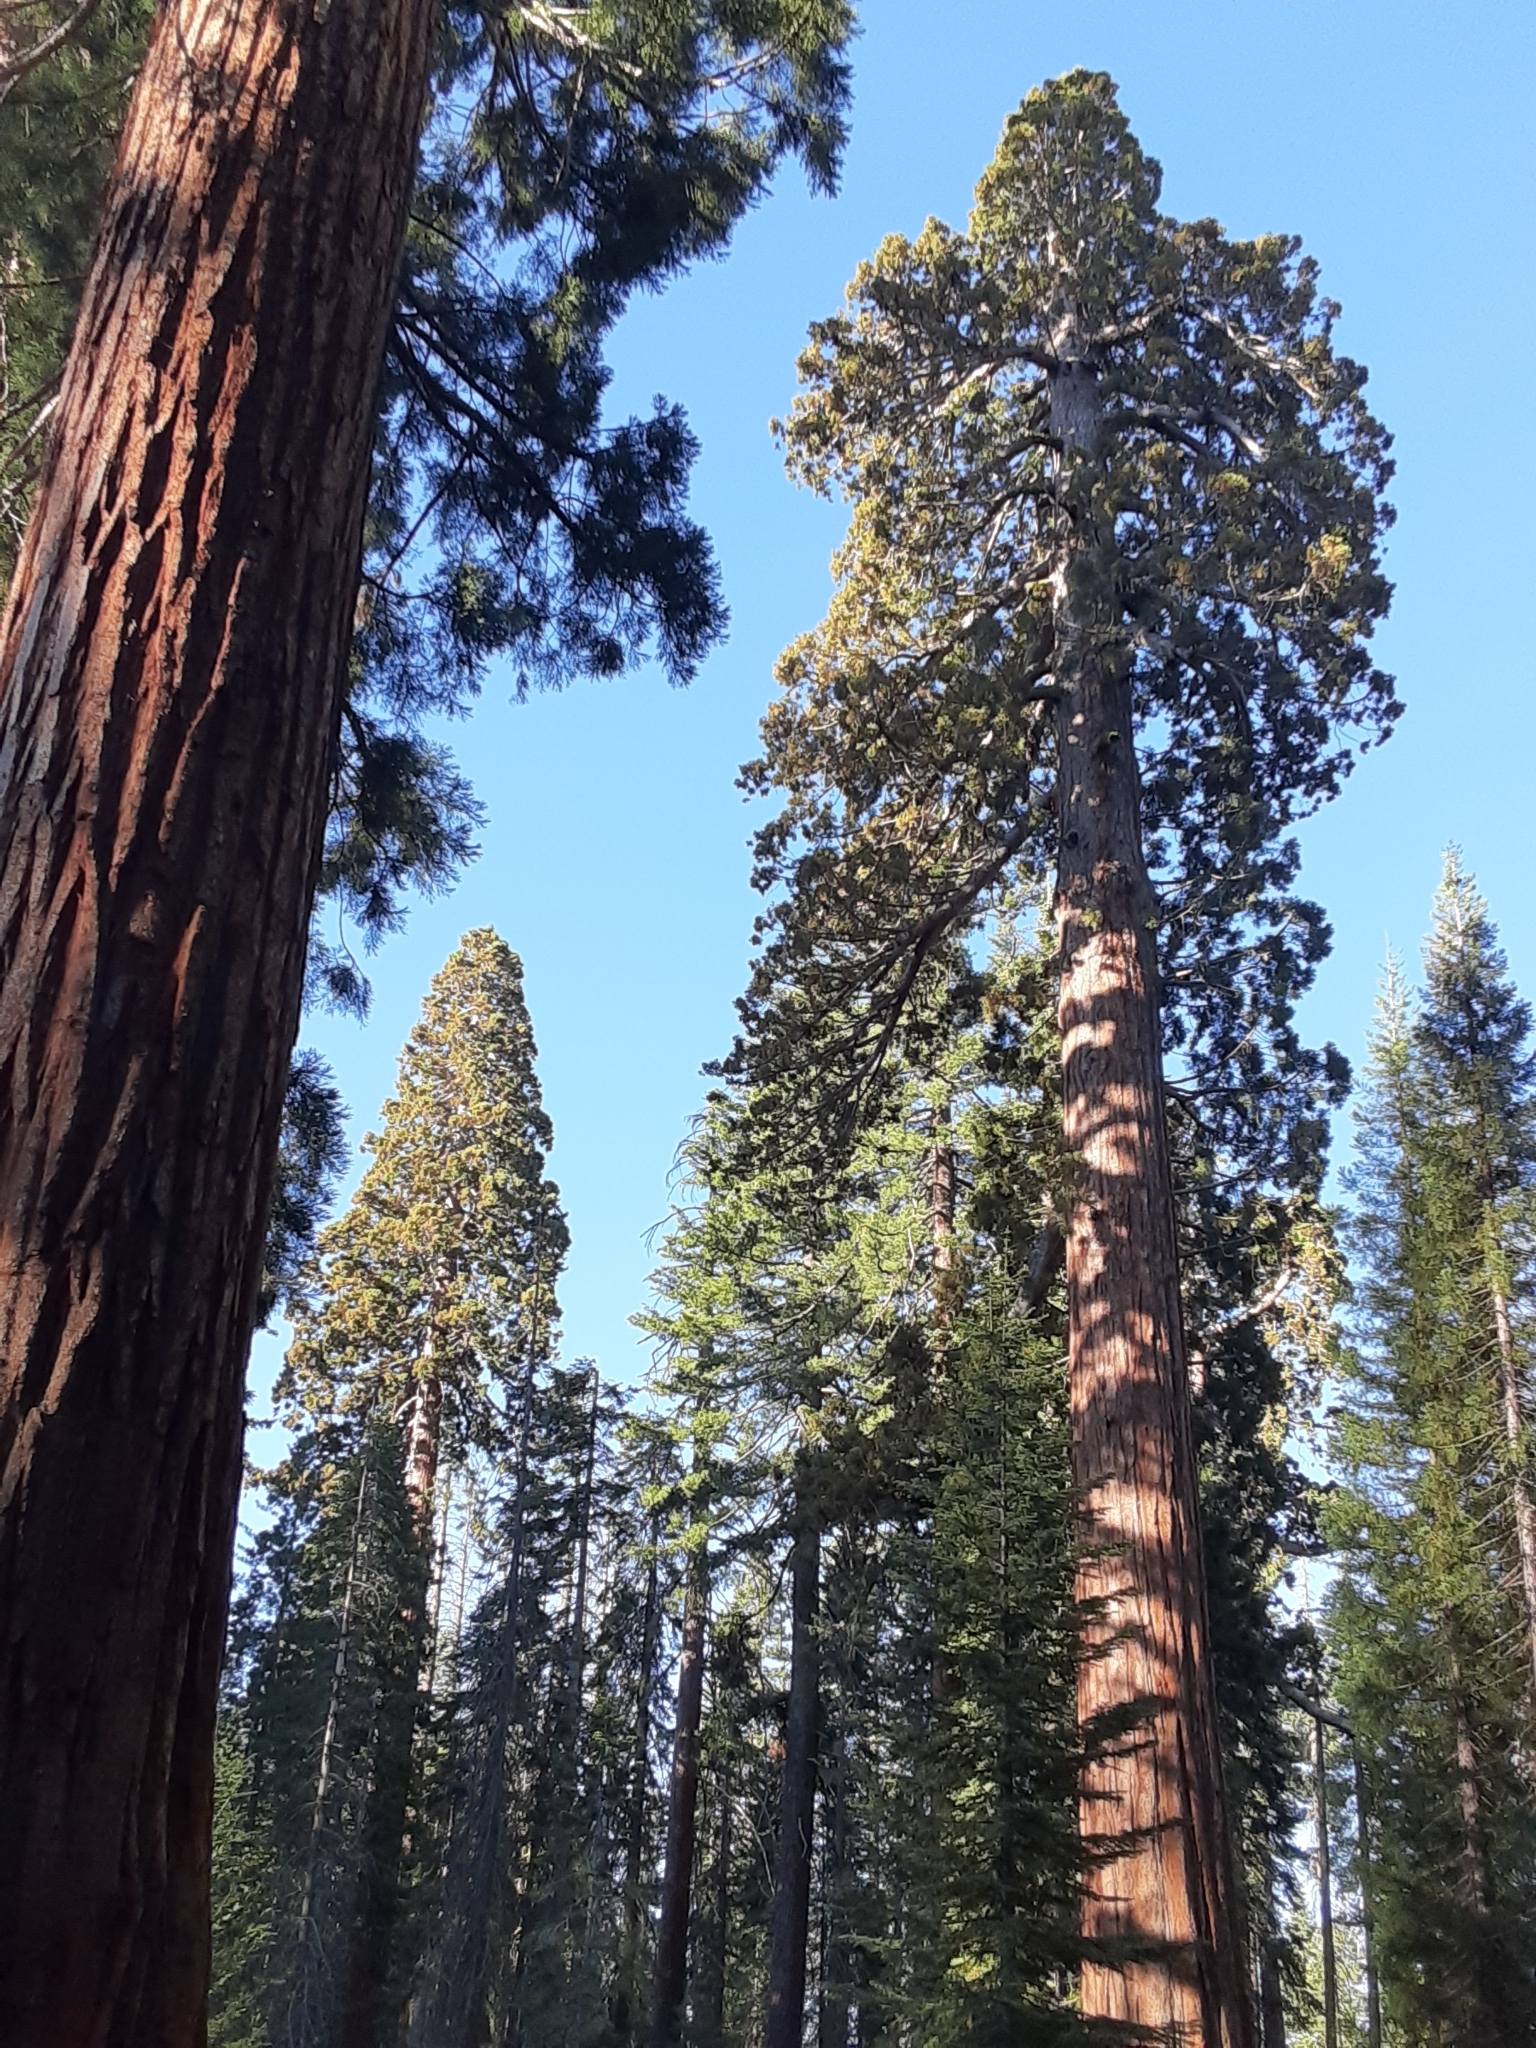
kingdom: Plantae
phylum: Tracheophyta
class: Pinopsida
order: Pinales
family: Cupressaceae
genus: Sequoiadendron
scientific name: Sequoiadendron giganteum
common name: Wellingtonia
